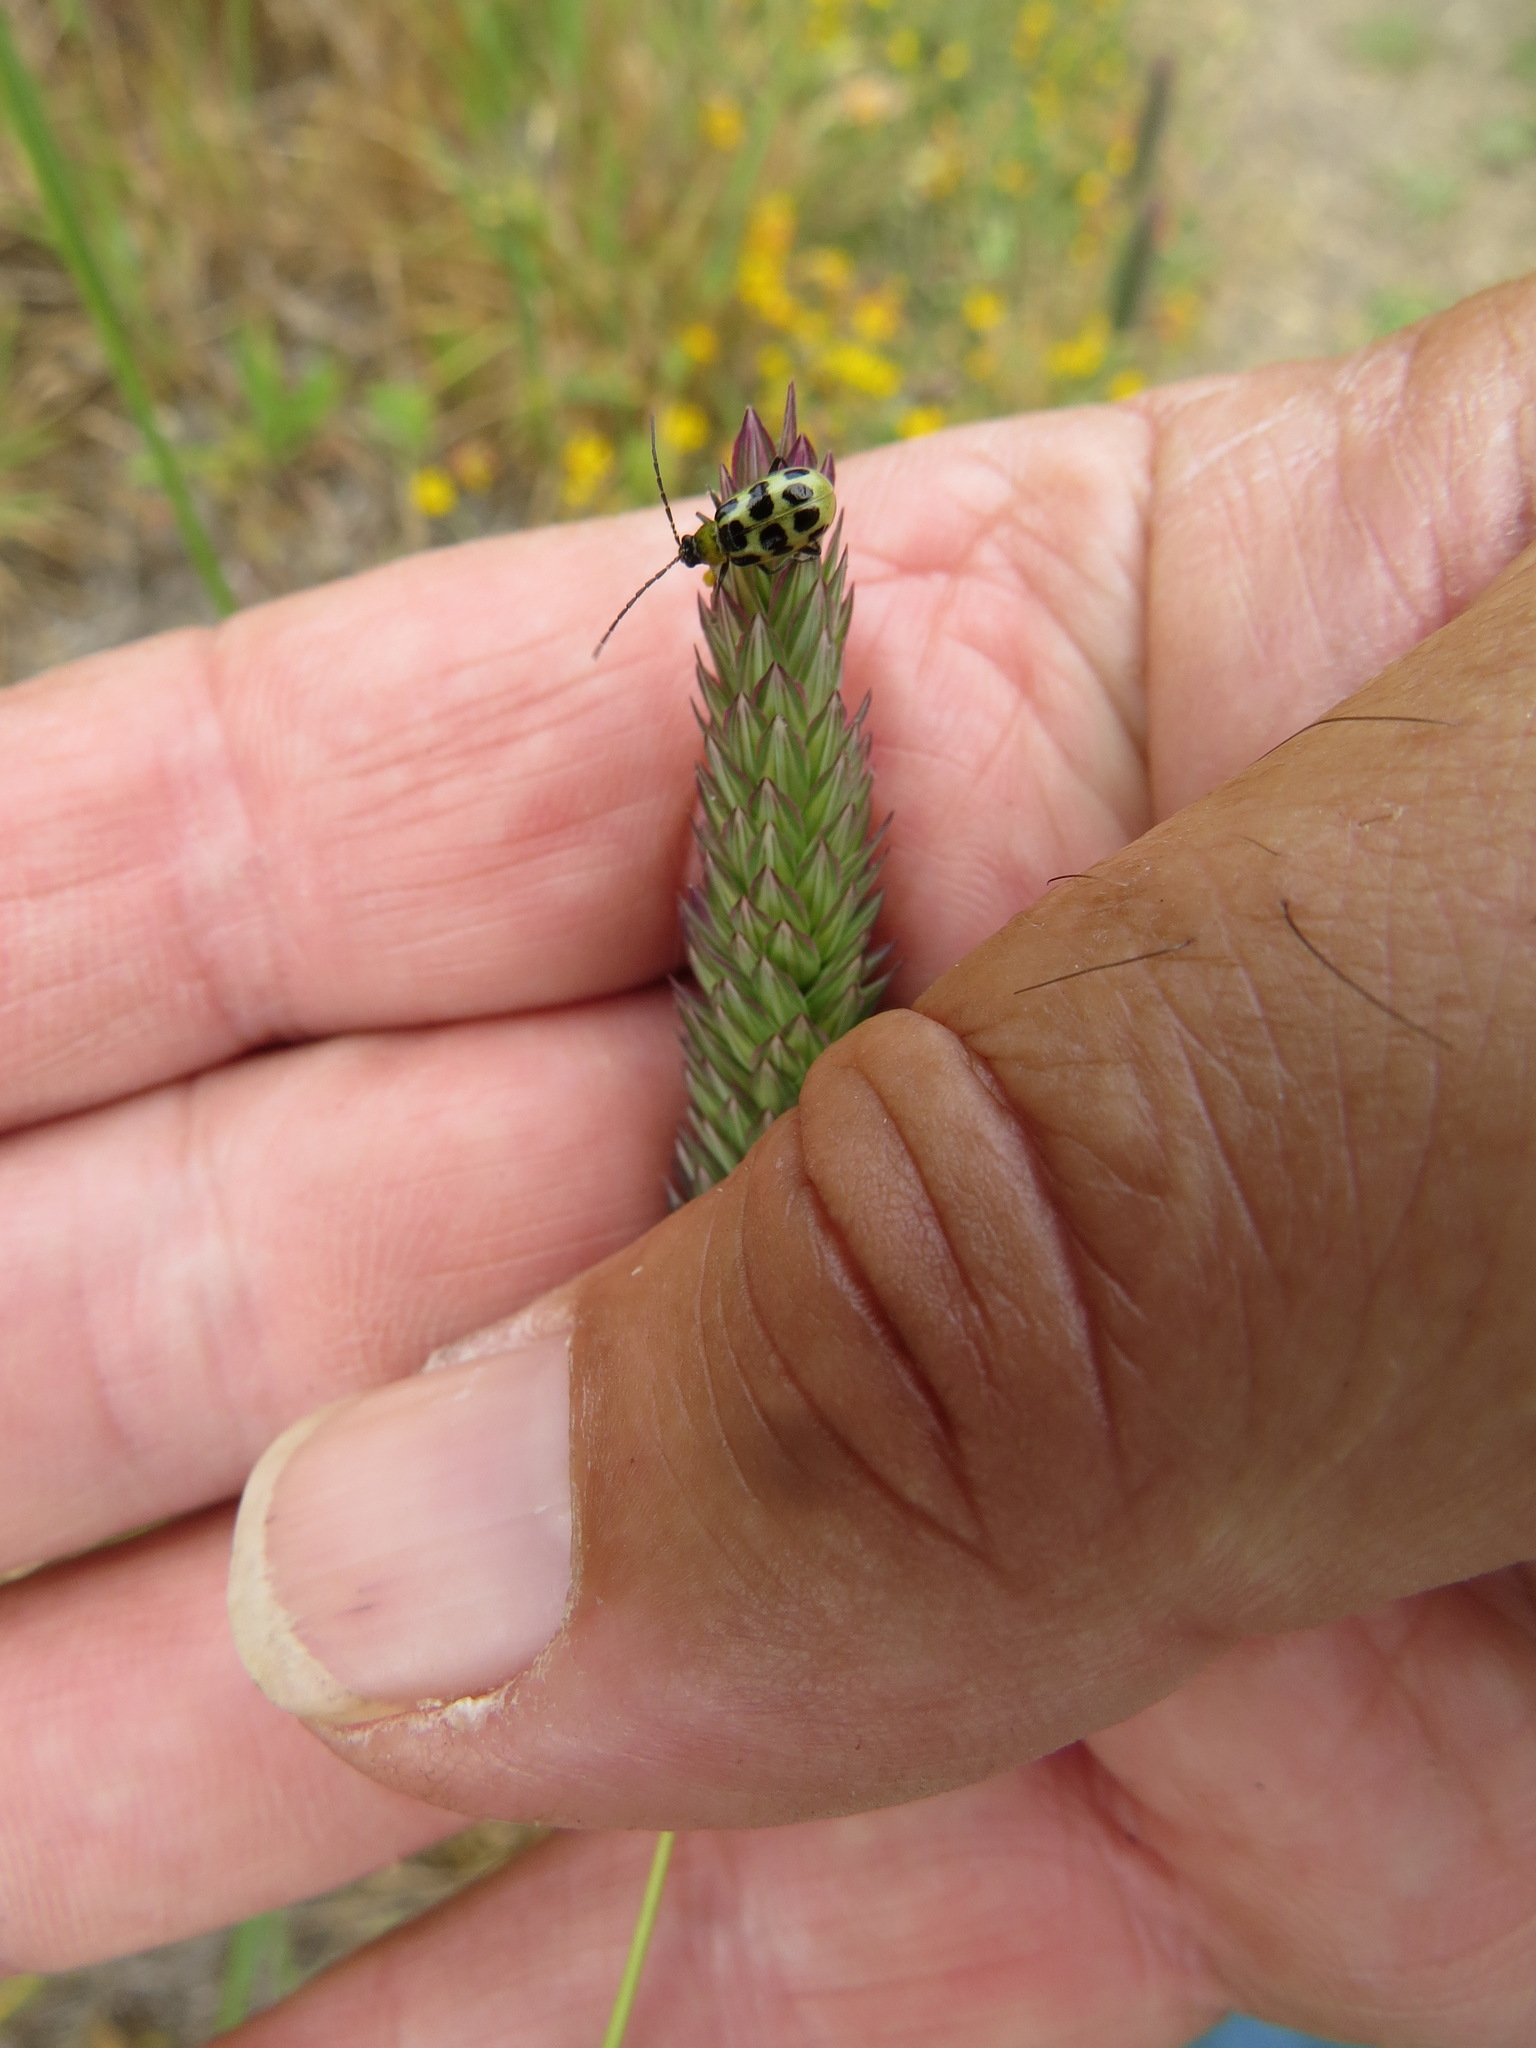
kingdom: Animalia
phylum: Arthropoda
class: Insecta
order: Coleoptera
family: Chrysomelidae
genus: Diabrotica
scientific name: Diabrotica undecimpunctata
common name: Spotted cucumber beetle
